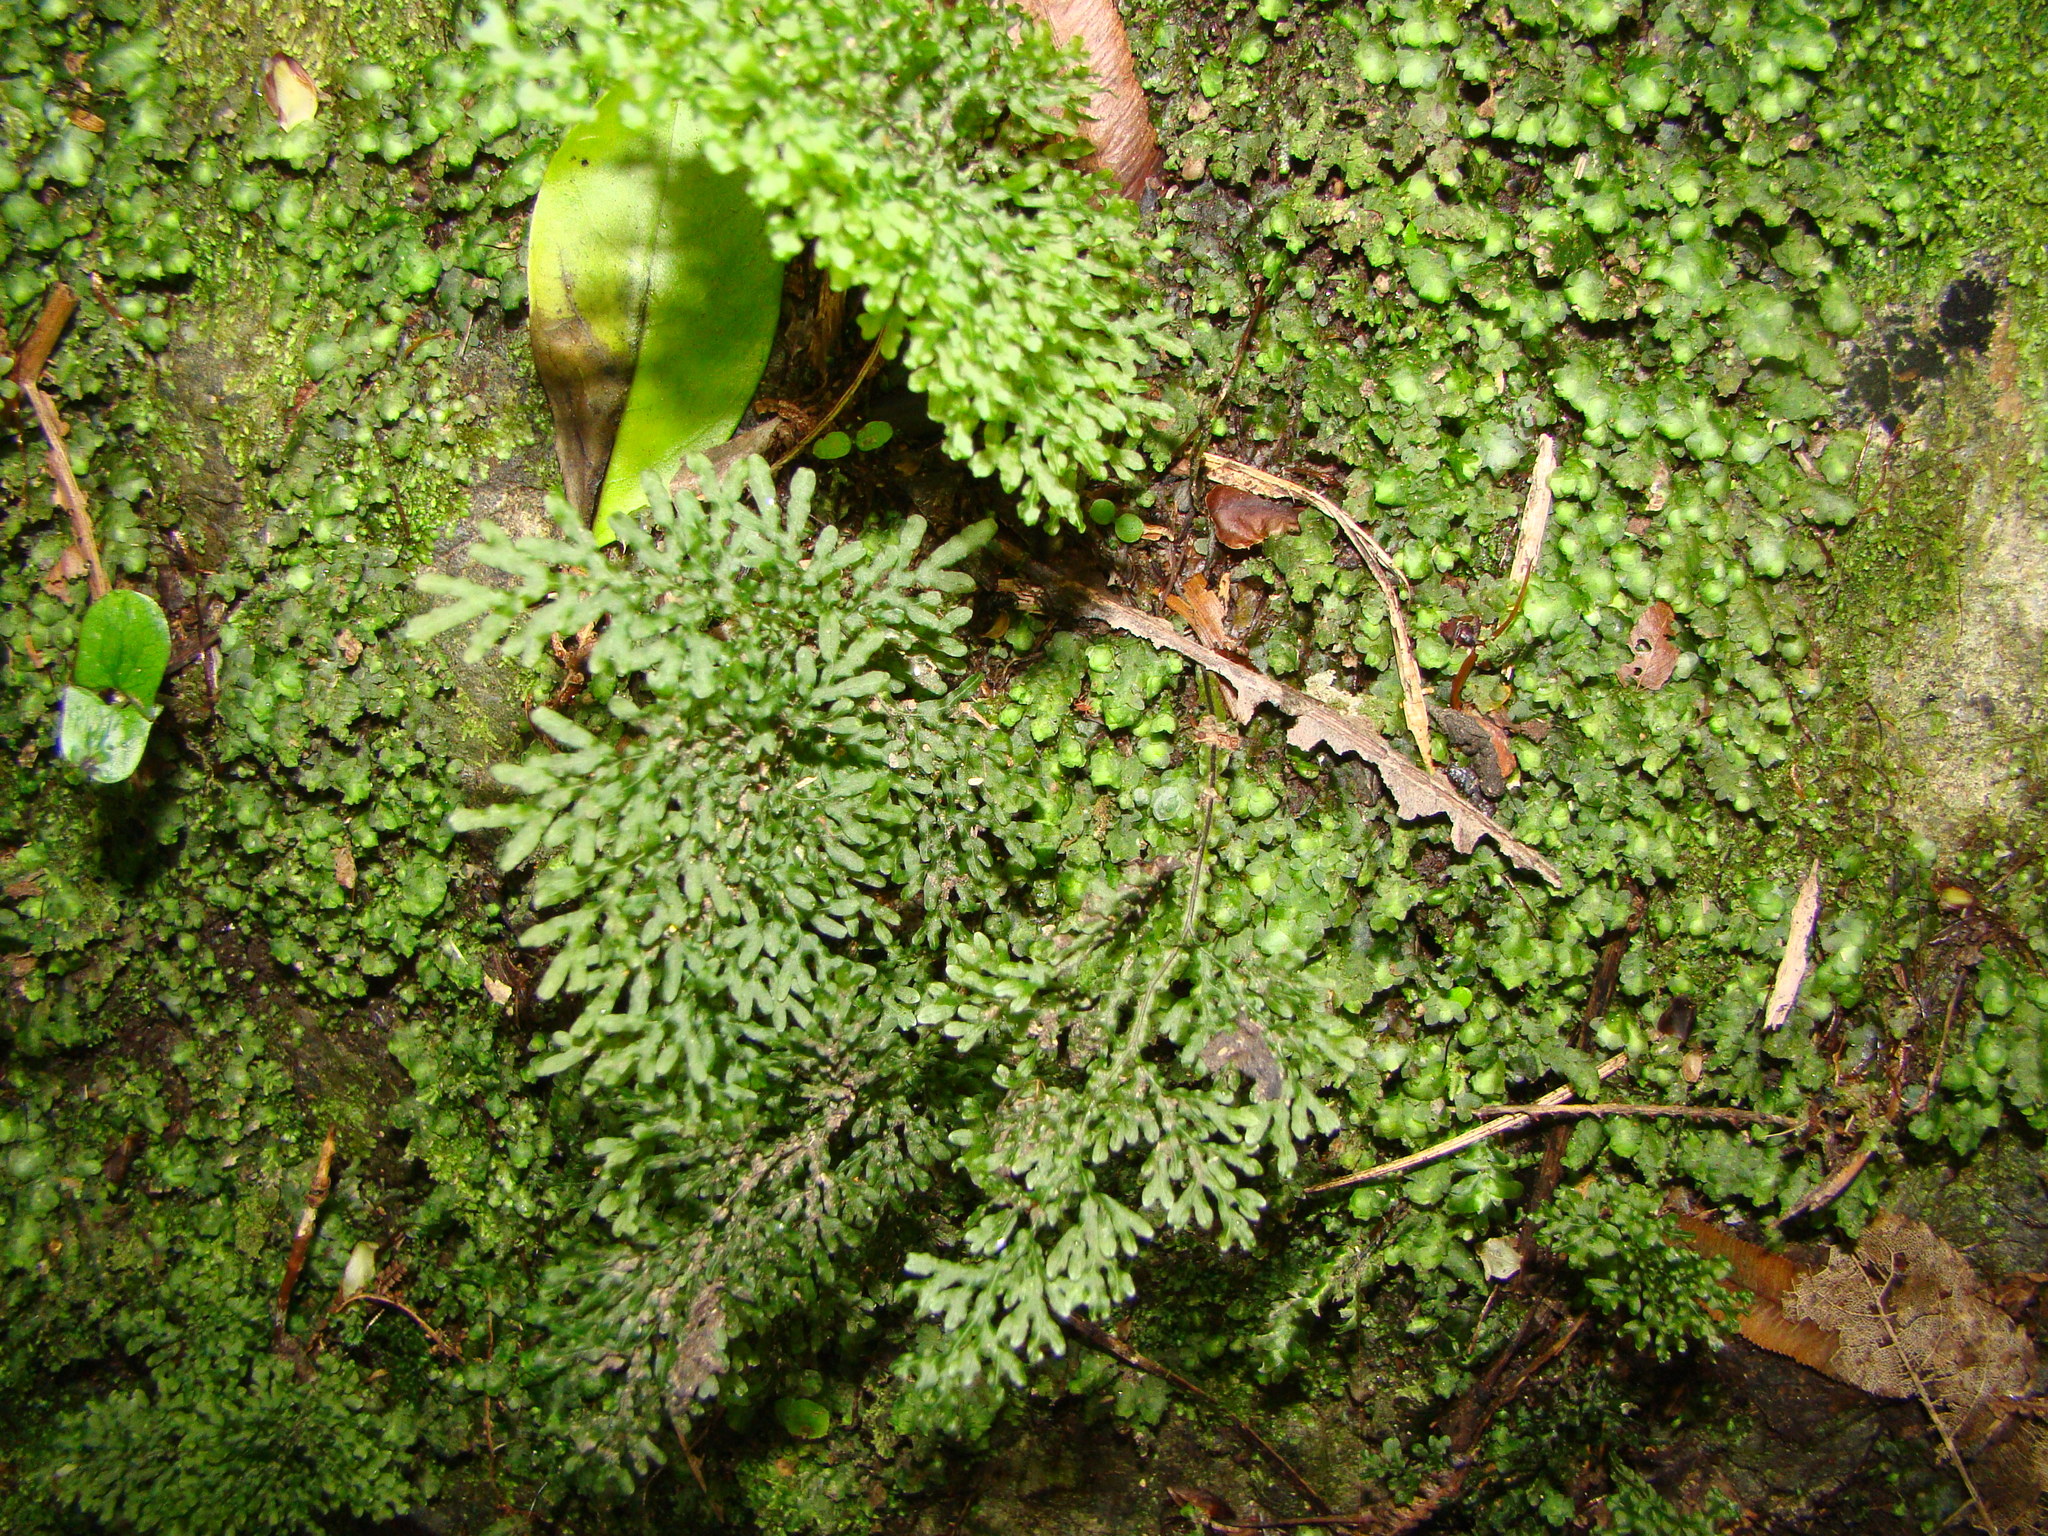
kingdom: Plantae
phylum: Tracheophyta
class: Polypodiopsida
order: Hymenophyllales
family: Hymenophyllaceae
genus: Hymenophyllum
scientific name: Hymenophyllum flexuosum
